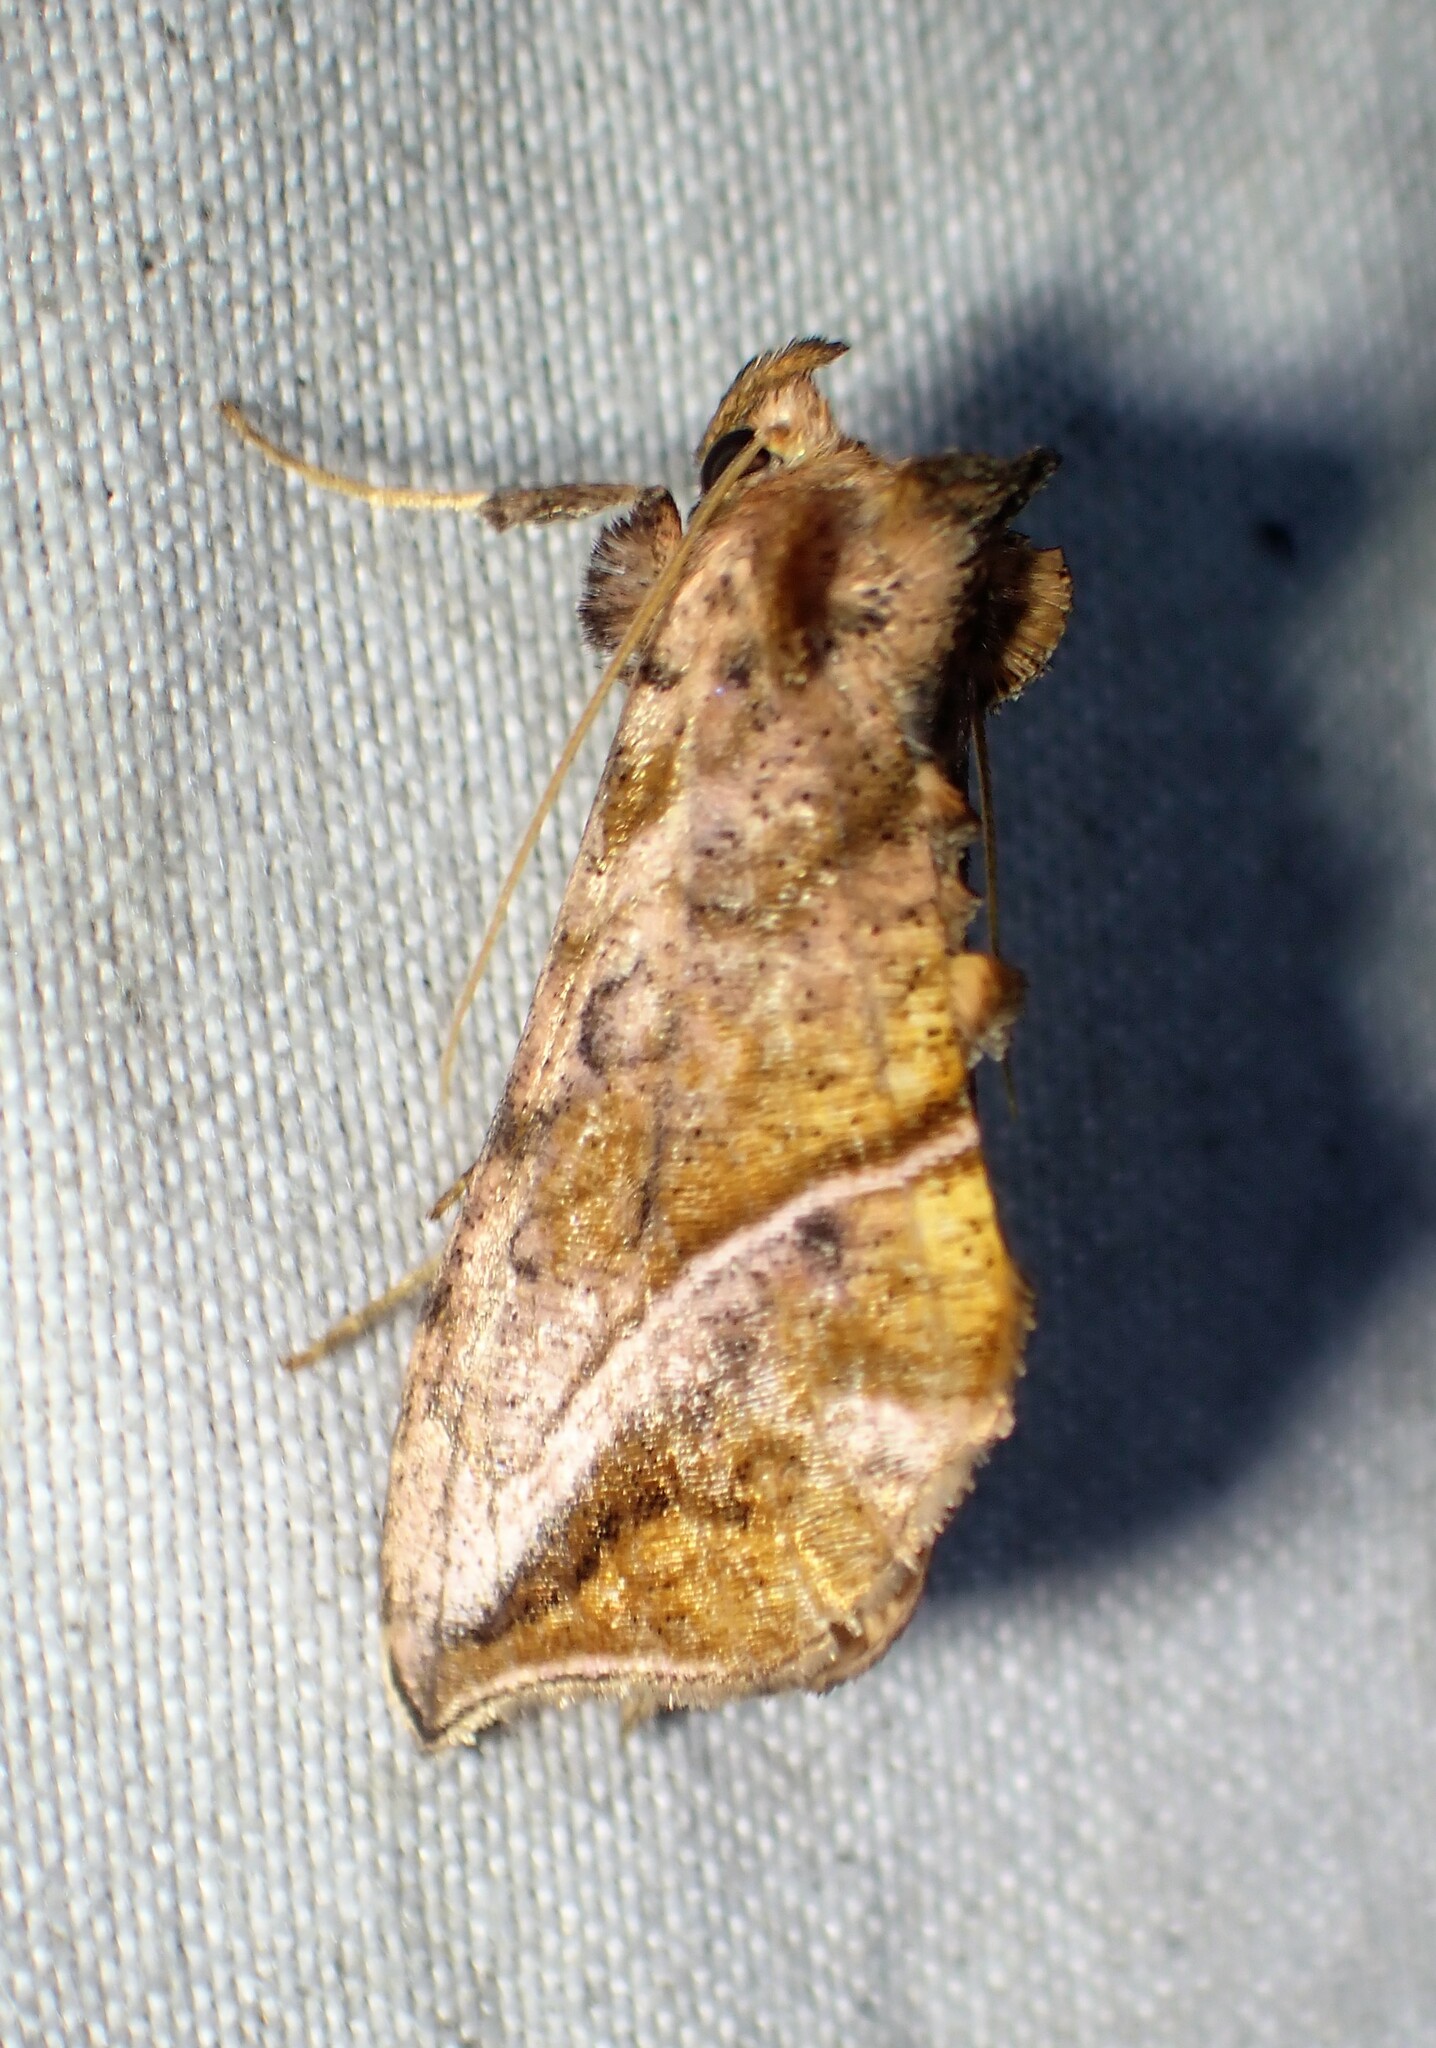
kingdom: Animalia
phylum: Arthropoda
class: Insecta
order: Lepidoptera
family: Noctuidae
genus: Pseudeva
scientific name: Pseudeva purpurigera
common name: Straight-lined looper moth
